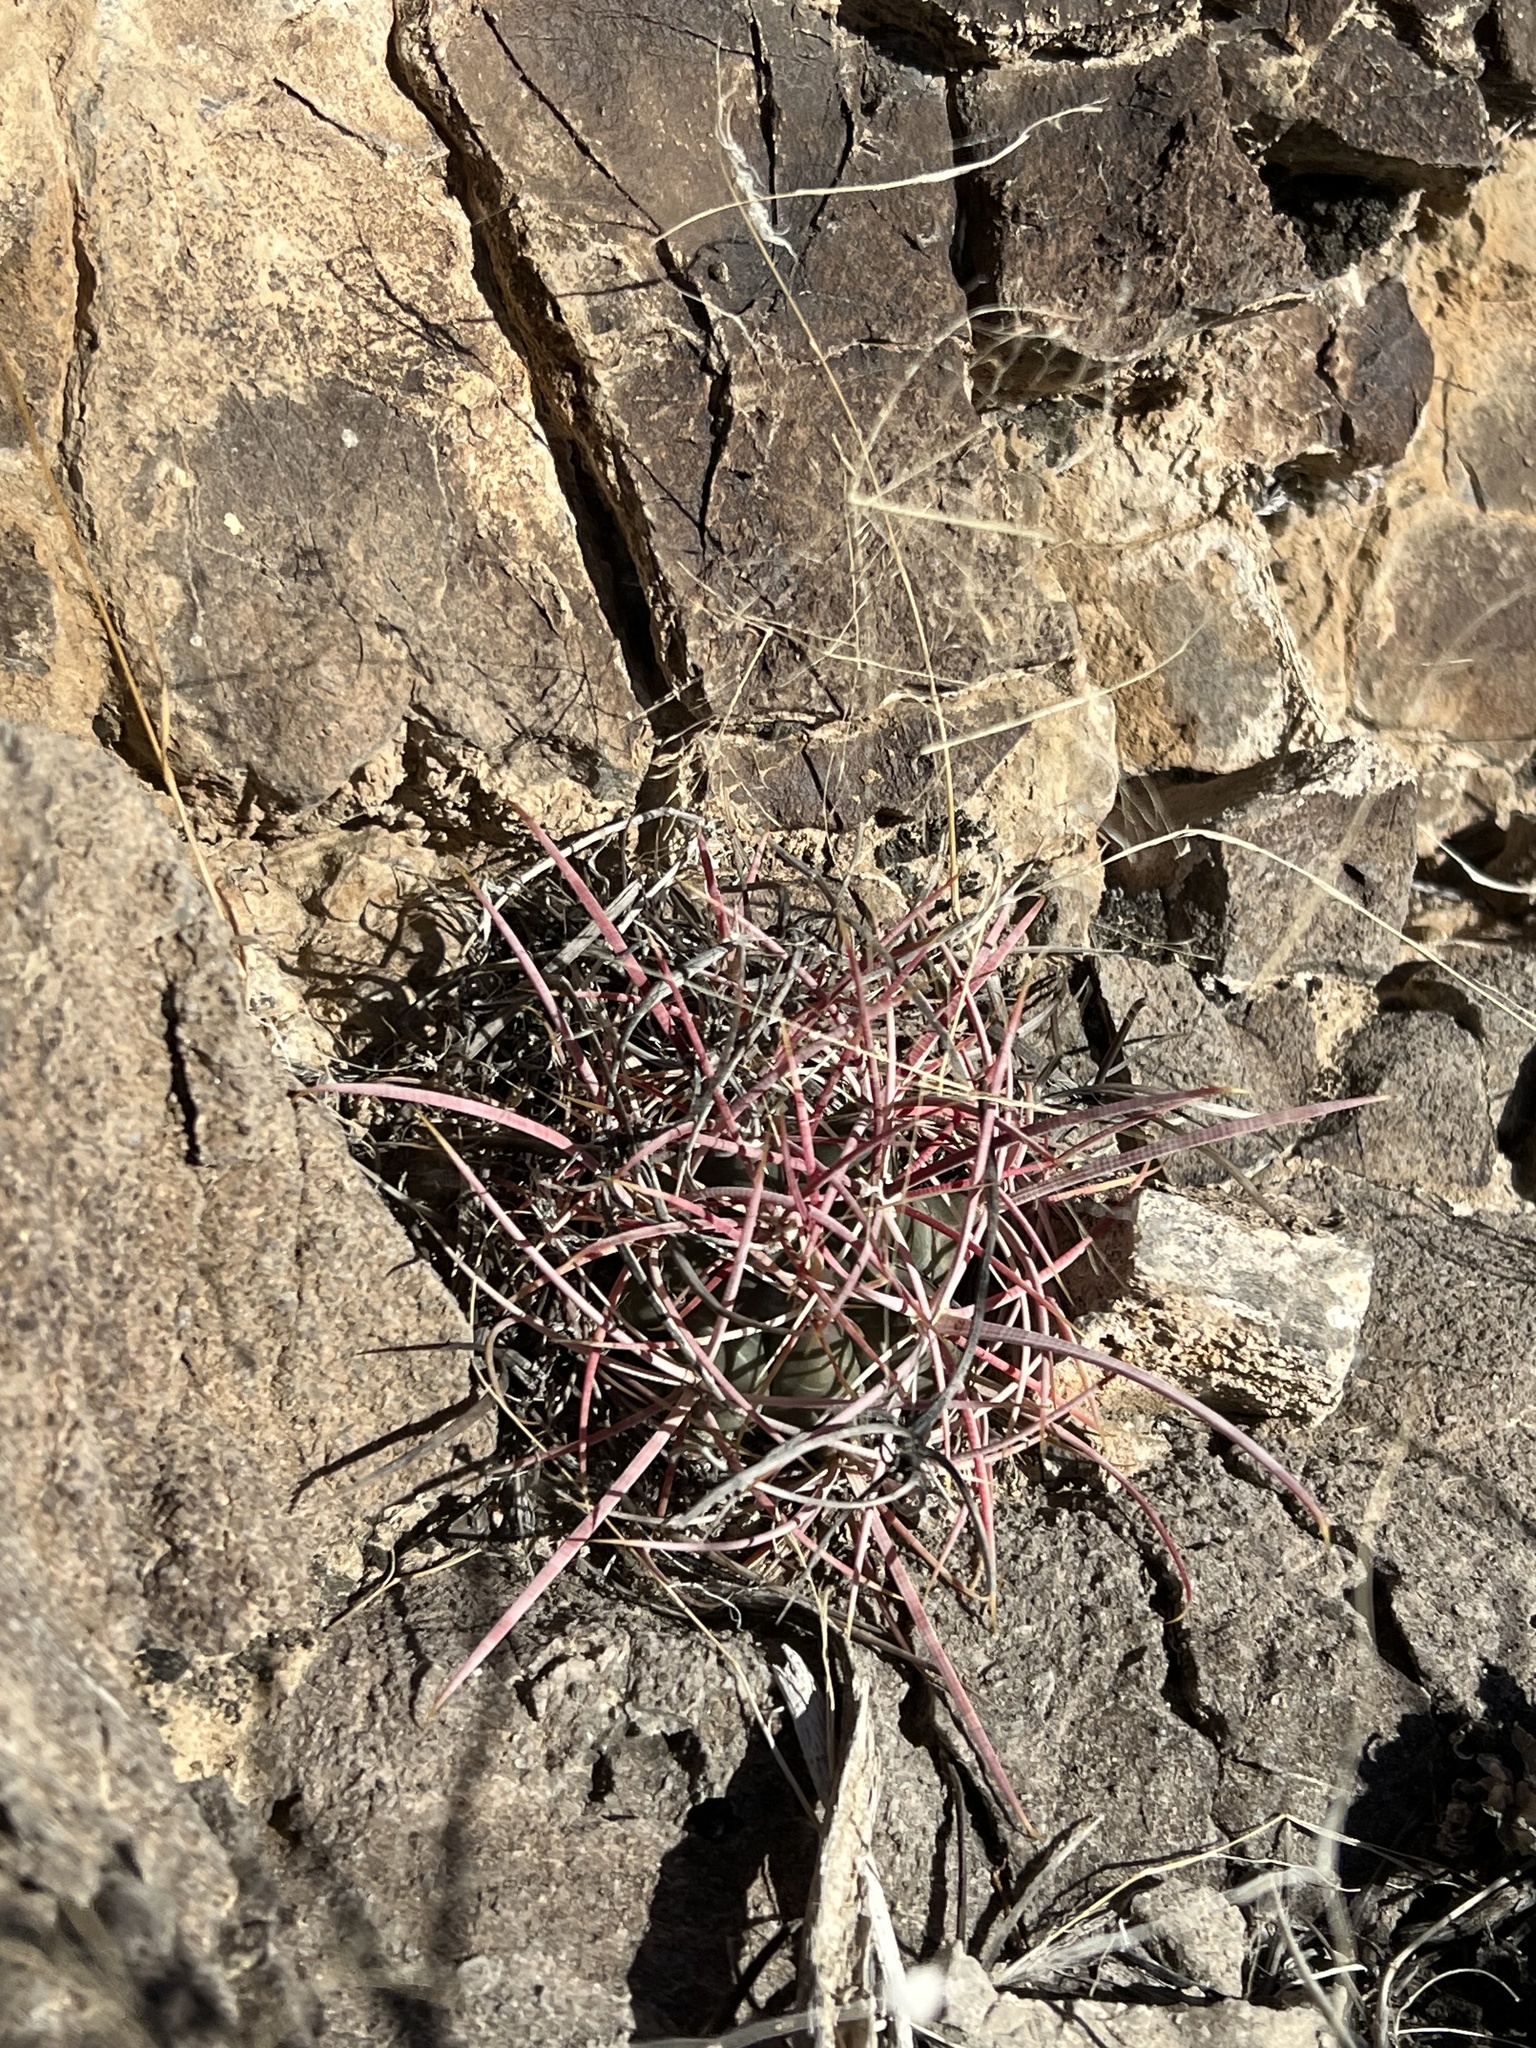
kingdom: Plantae
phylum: Tracheophyta
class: Magnoliopsida
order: Caryophyllales
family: Cactaceae
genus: Ferocactus
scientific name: Ferocactus cylindraceus
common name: California barrel cactus
